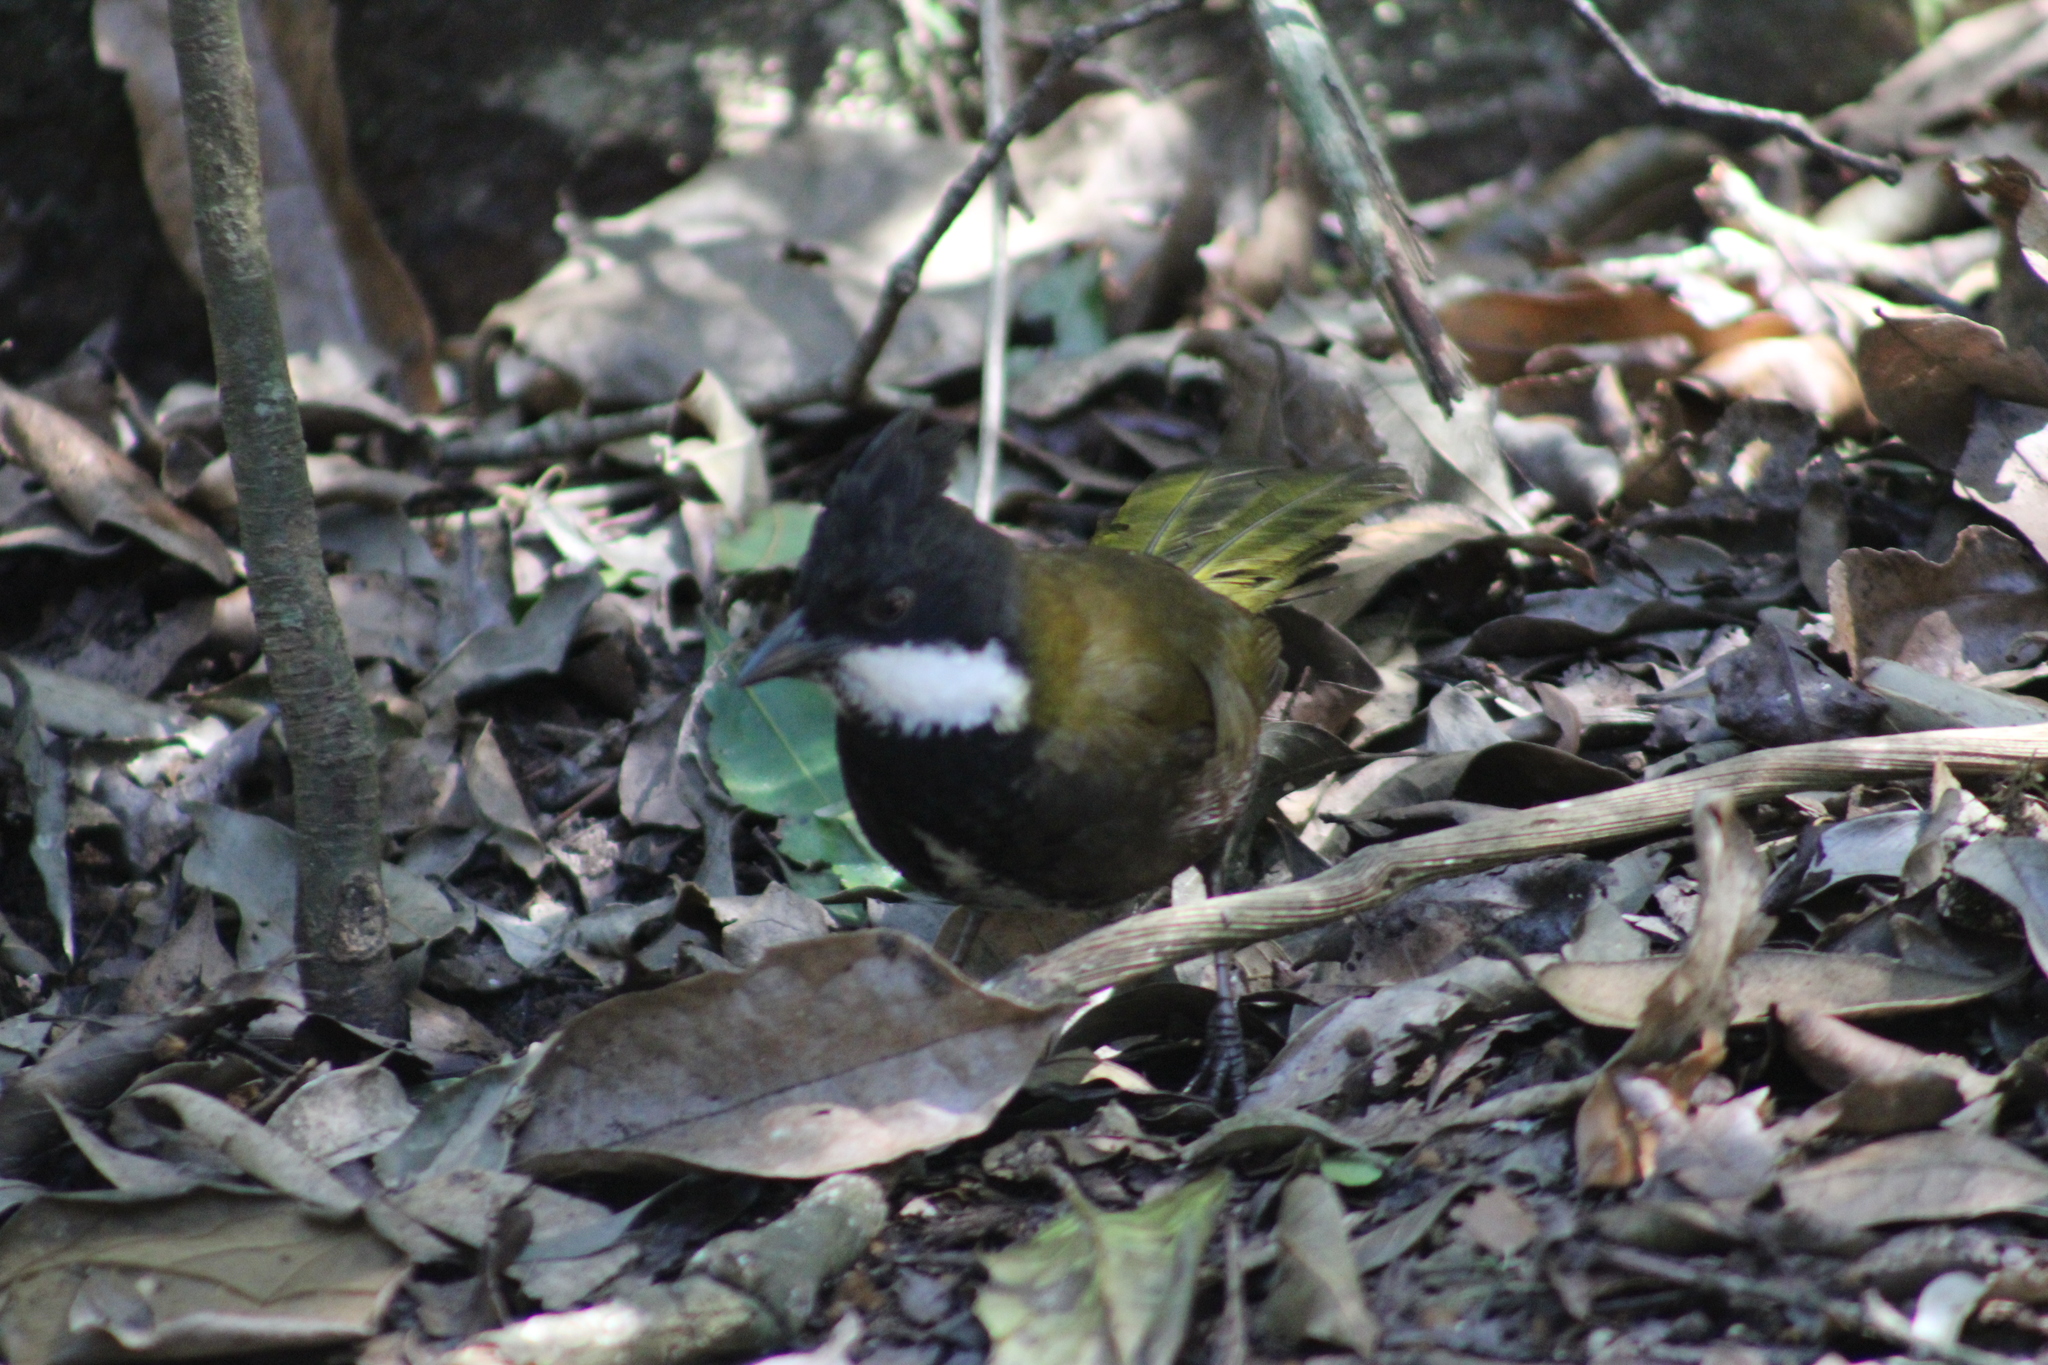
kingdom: Animalia
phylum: Chordata
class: Aves
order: Passeriformes
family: Psophodidae
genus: Psophodes
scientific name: Psophodes olivaceus
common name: Eastern whipbird
